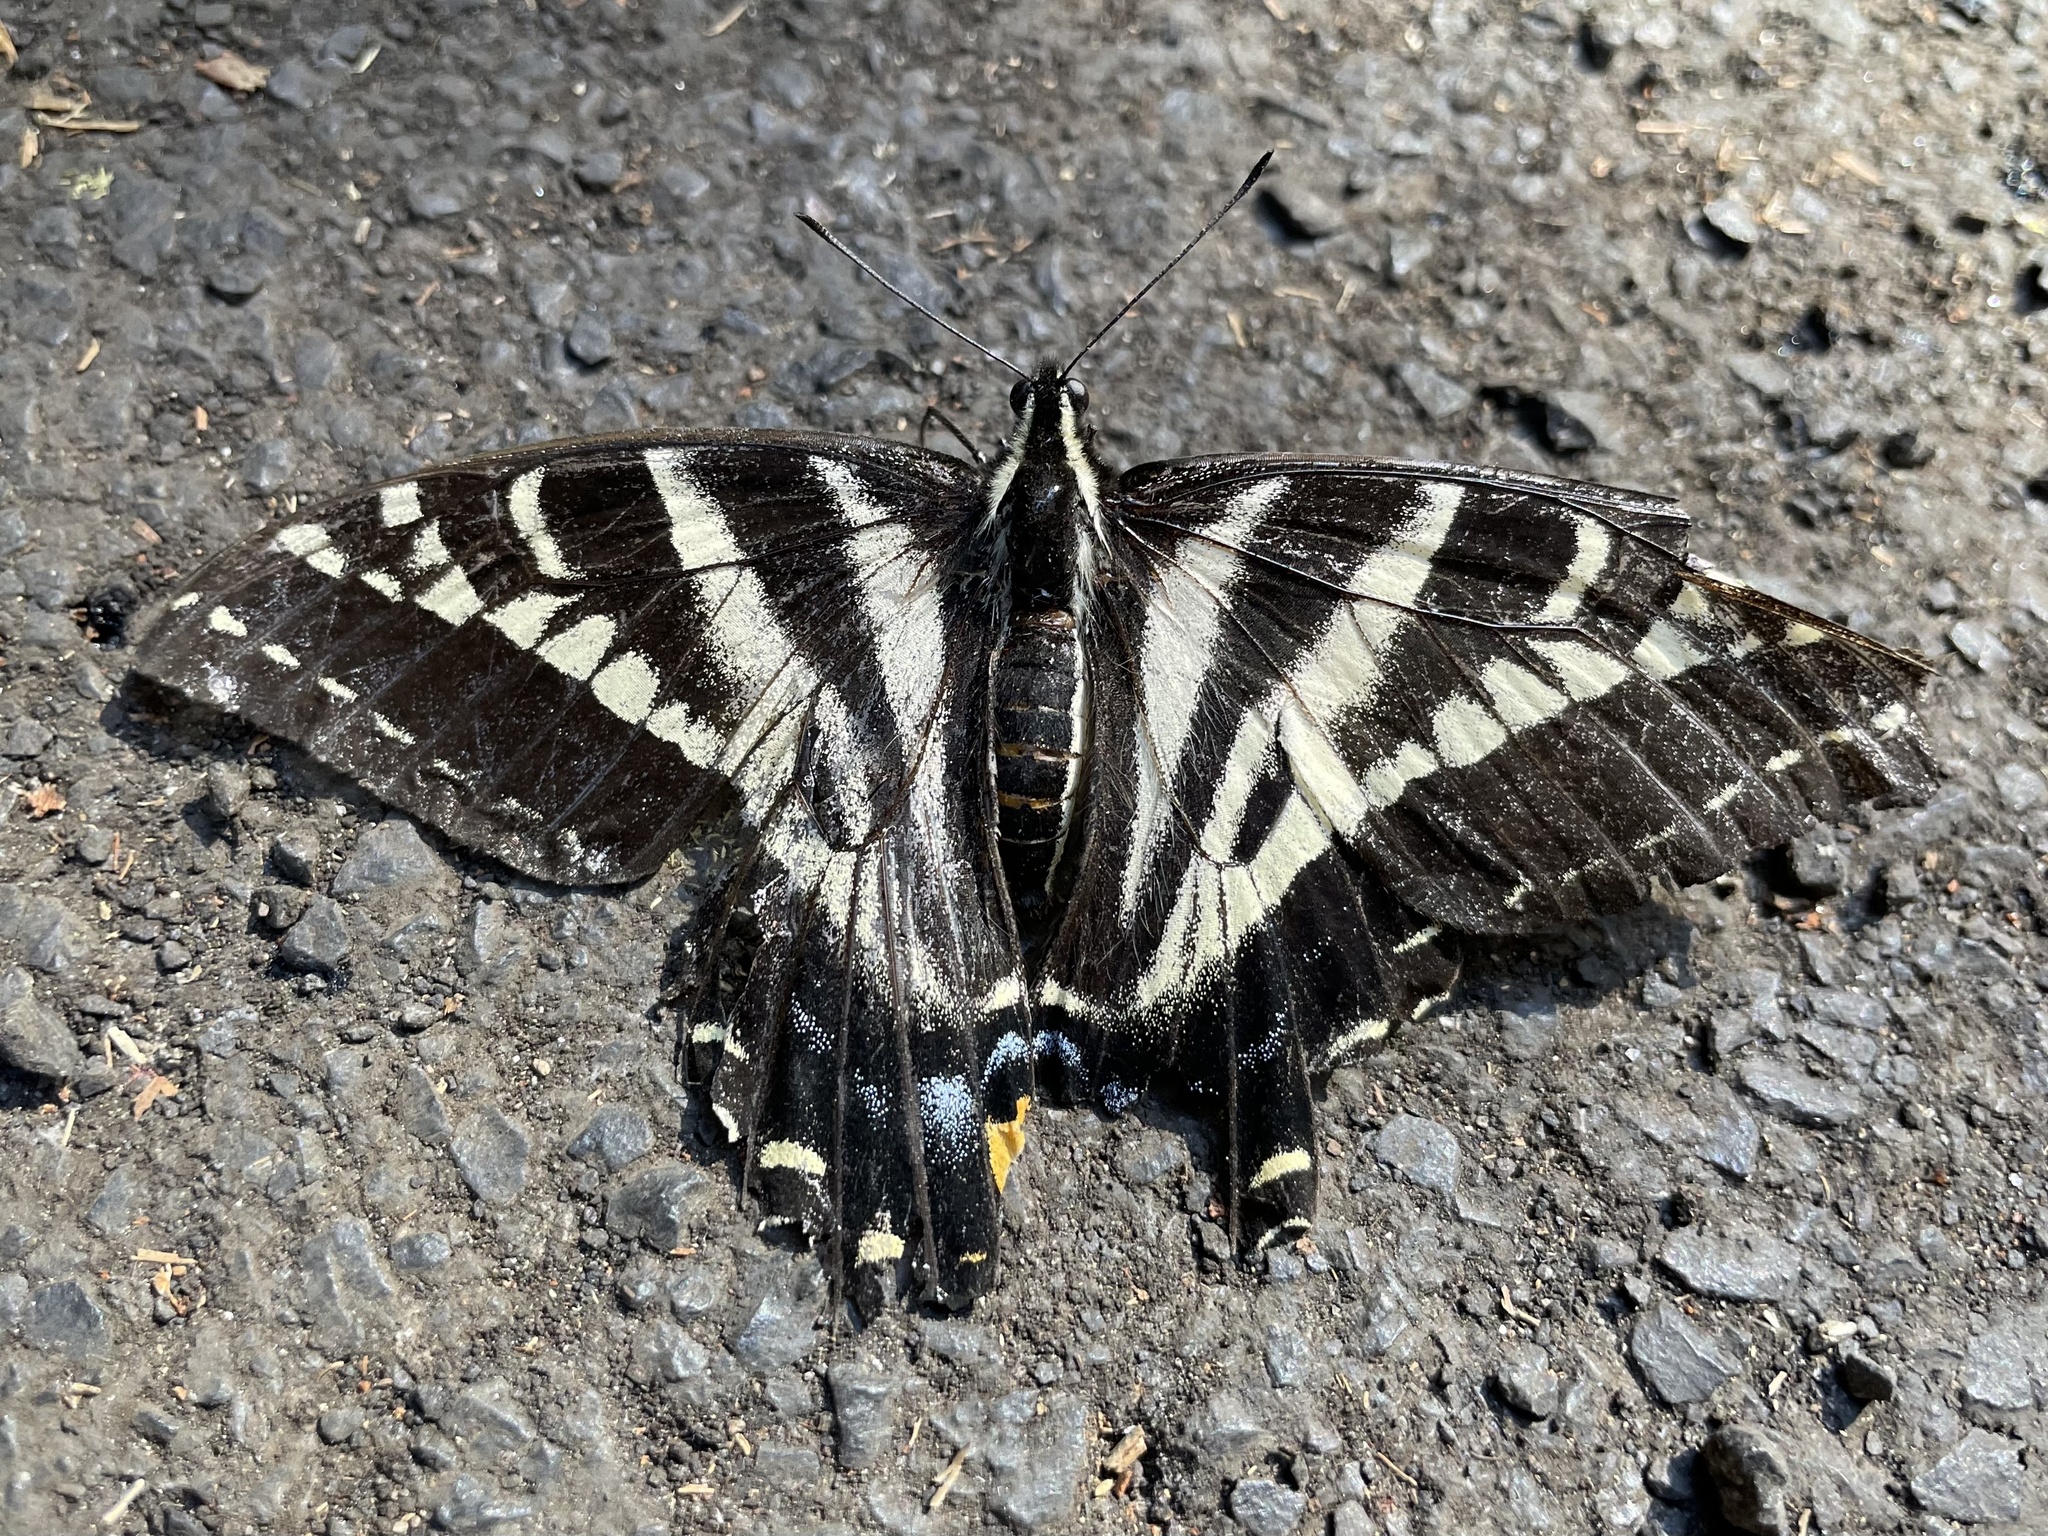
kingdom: Animalia
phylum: Arthropoda
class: Insecta
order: Lepidoptera
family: Papilionidae
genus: Papilio
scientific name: Papilio eurymedon
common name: Pale tiger swallowtail
